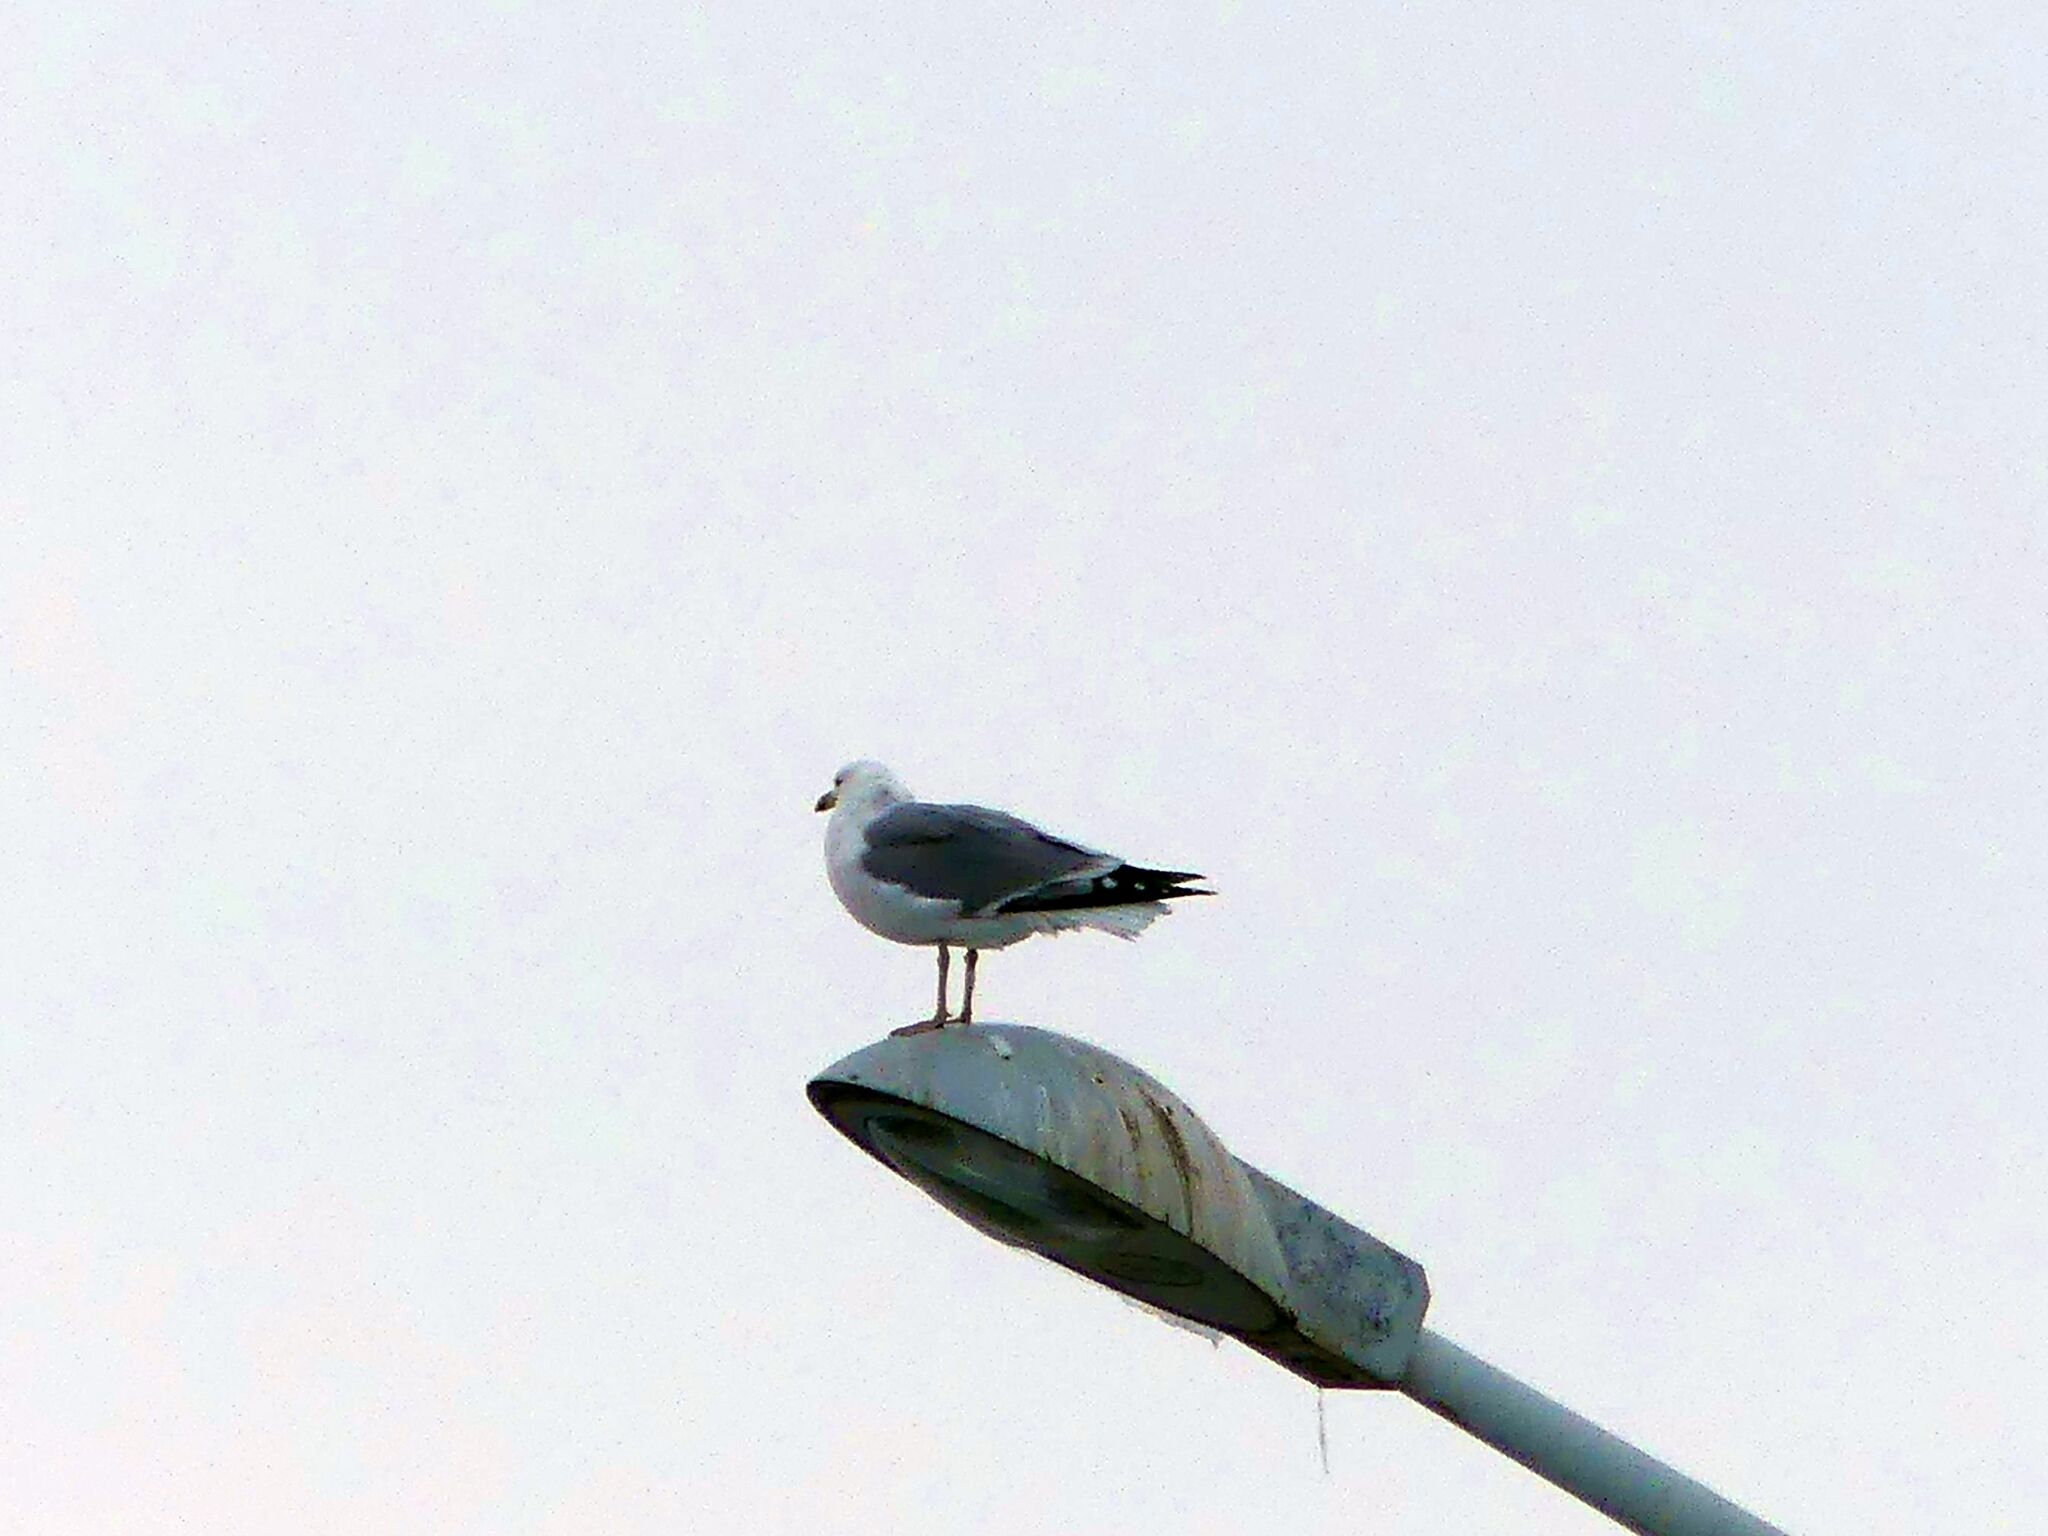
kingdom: Animalia
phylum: Chordata
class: Aves
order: Charadriiformes
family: Laridae
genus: Larus
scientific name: Larus cachinnans
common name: Caspian gull
